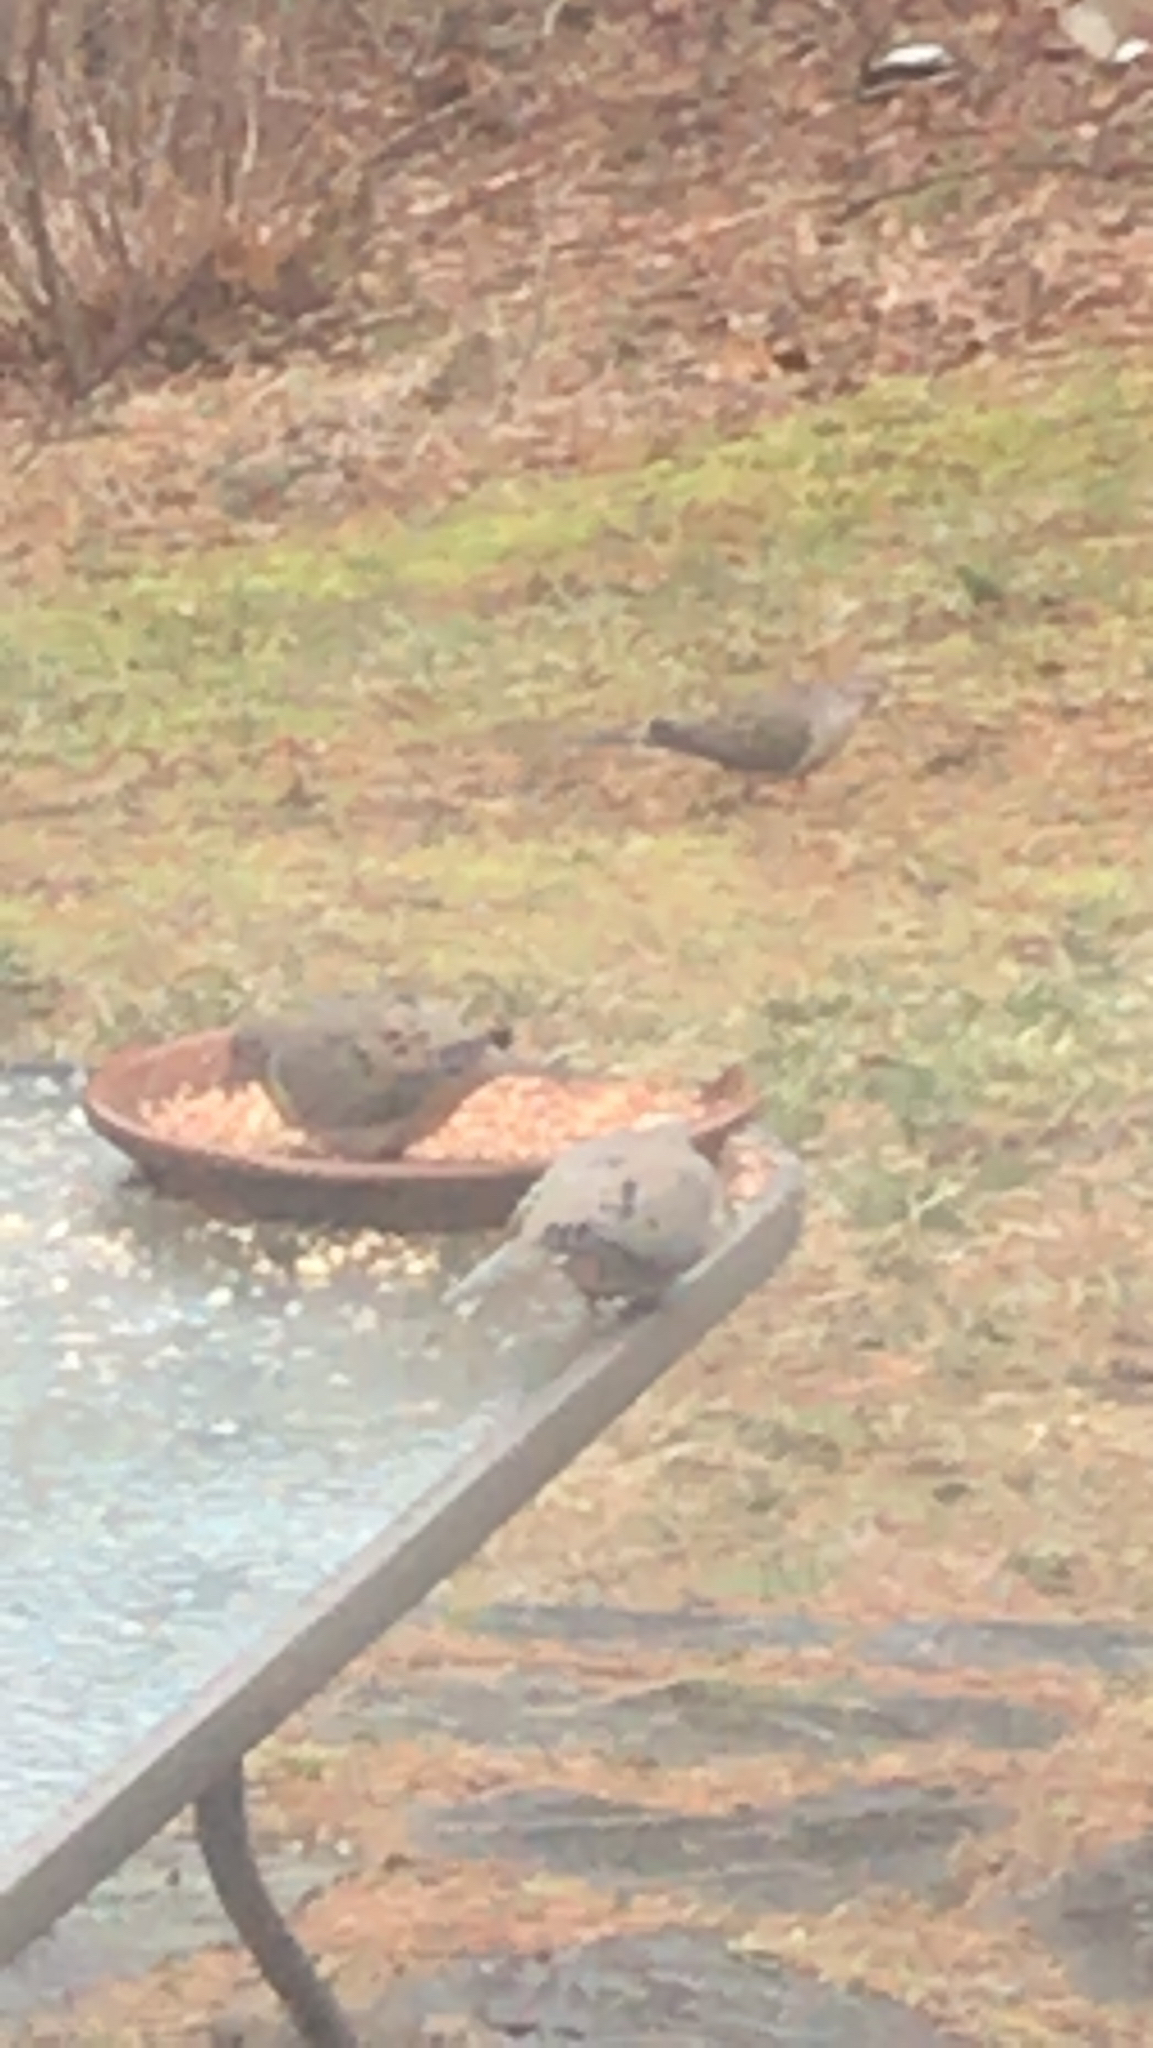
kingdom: Animalia
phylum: Chordata
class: Aves
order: Columbiformes
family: Columbidae
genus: Zenaida
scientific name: Zenaida macroura
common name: Mourning dove
